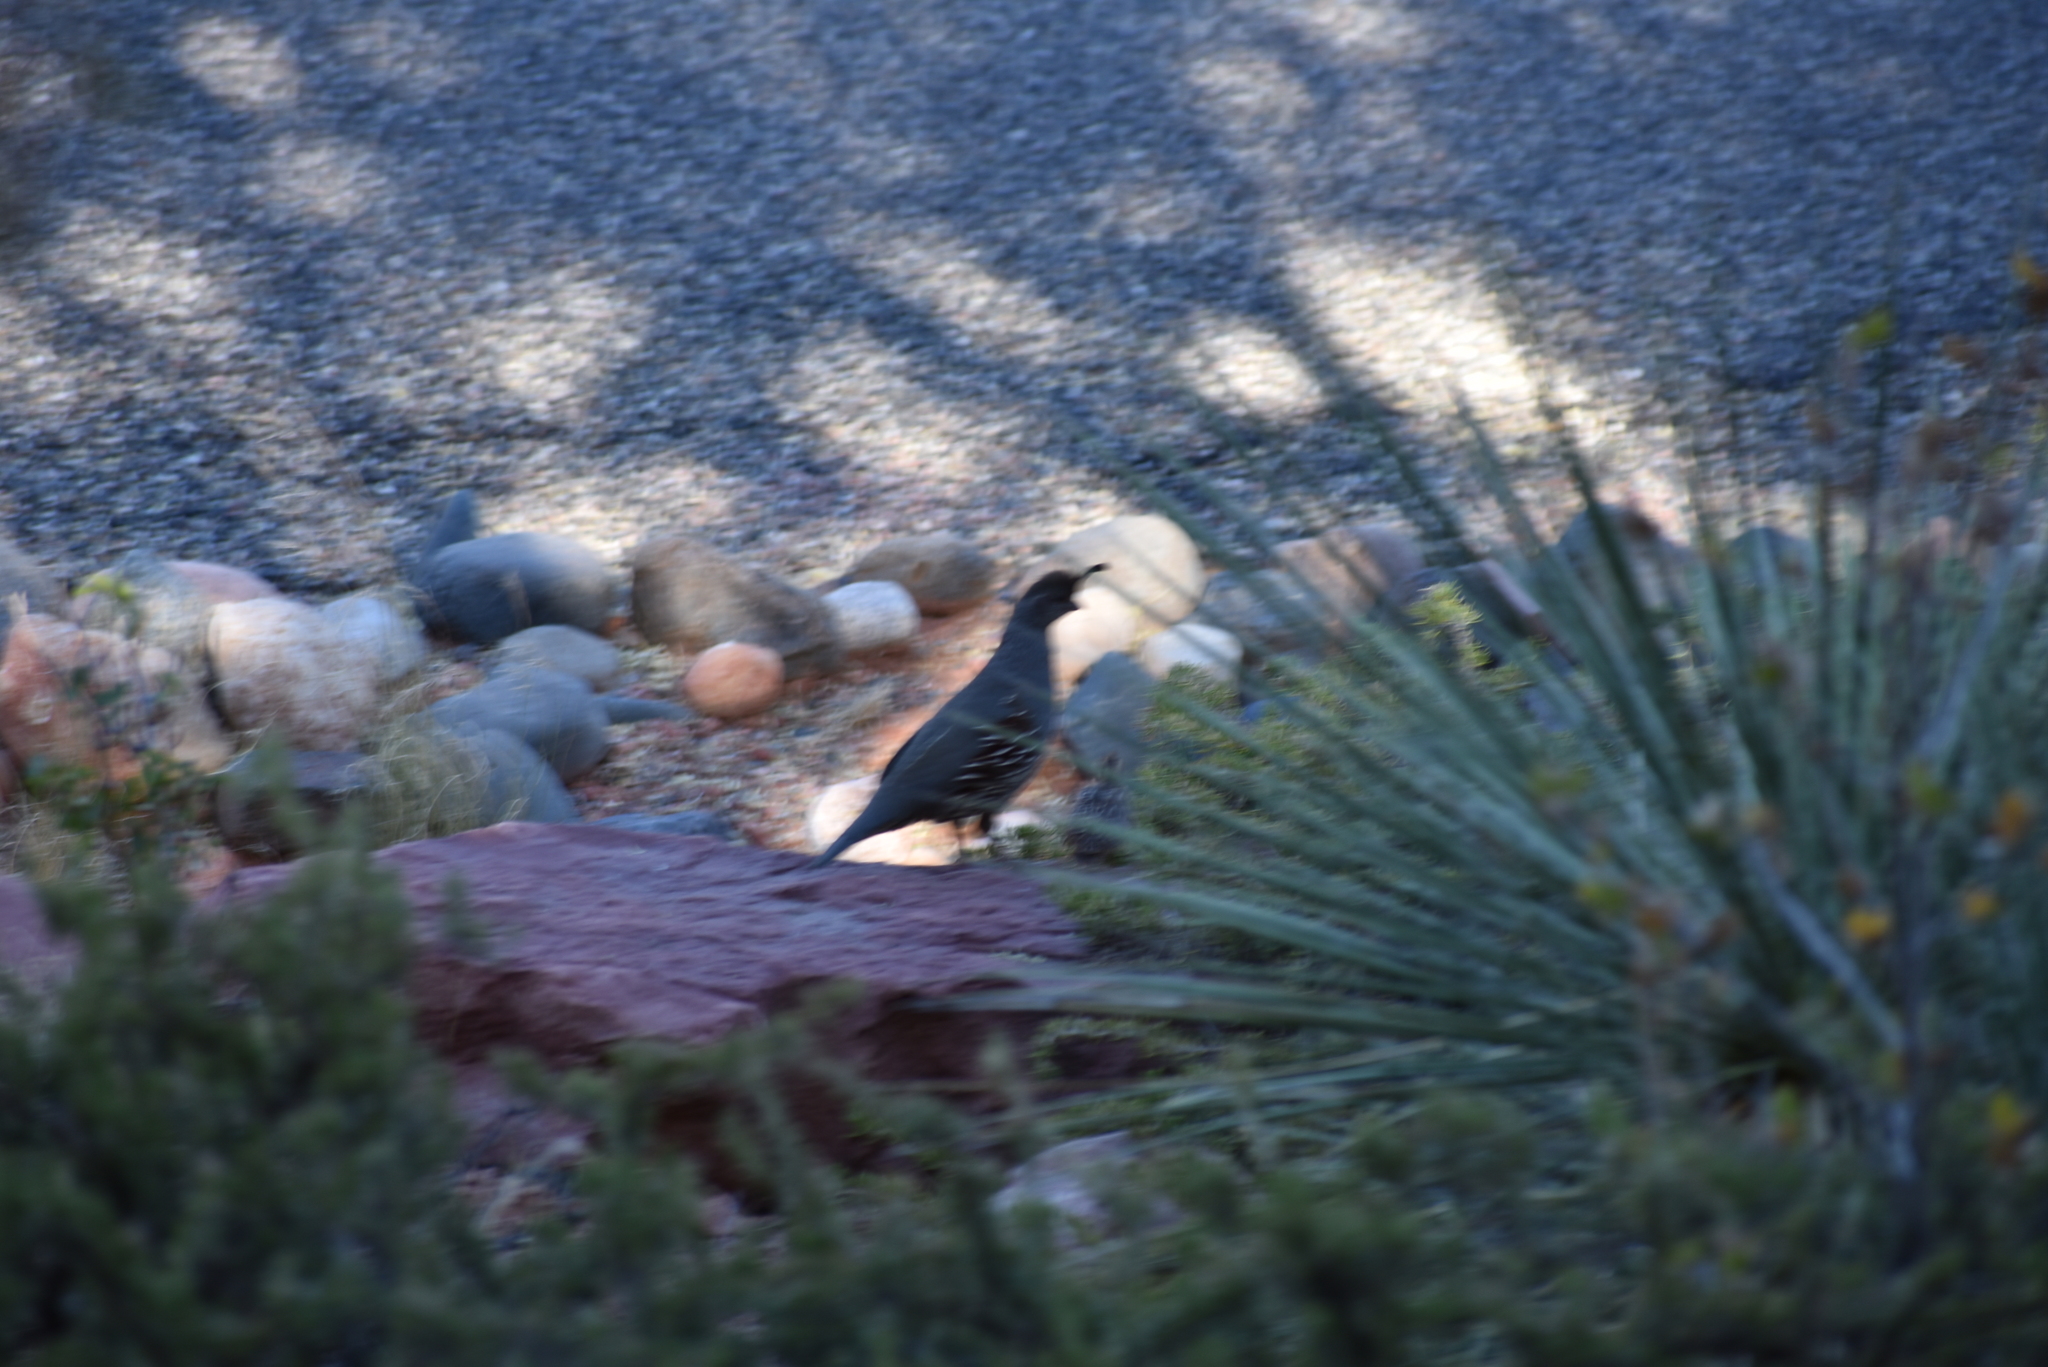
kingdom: Animalia
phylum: Chordata
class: Aves
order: Galliformes
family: Odontophoridae
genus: Callipepla
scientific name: Callipepla gambelii
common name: Gambel's quail
